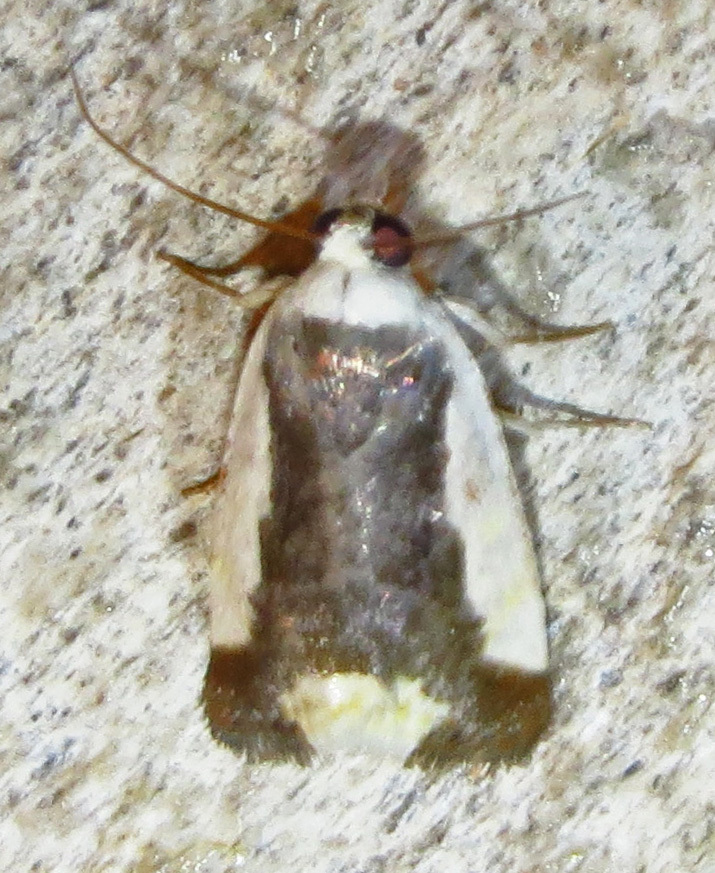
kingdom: Animalia
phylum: Arthropoda
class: Insecta
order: Lepidoptera
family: Noctuidae
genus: Acontia
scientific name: Acontia Tarache expolita
